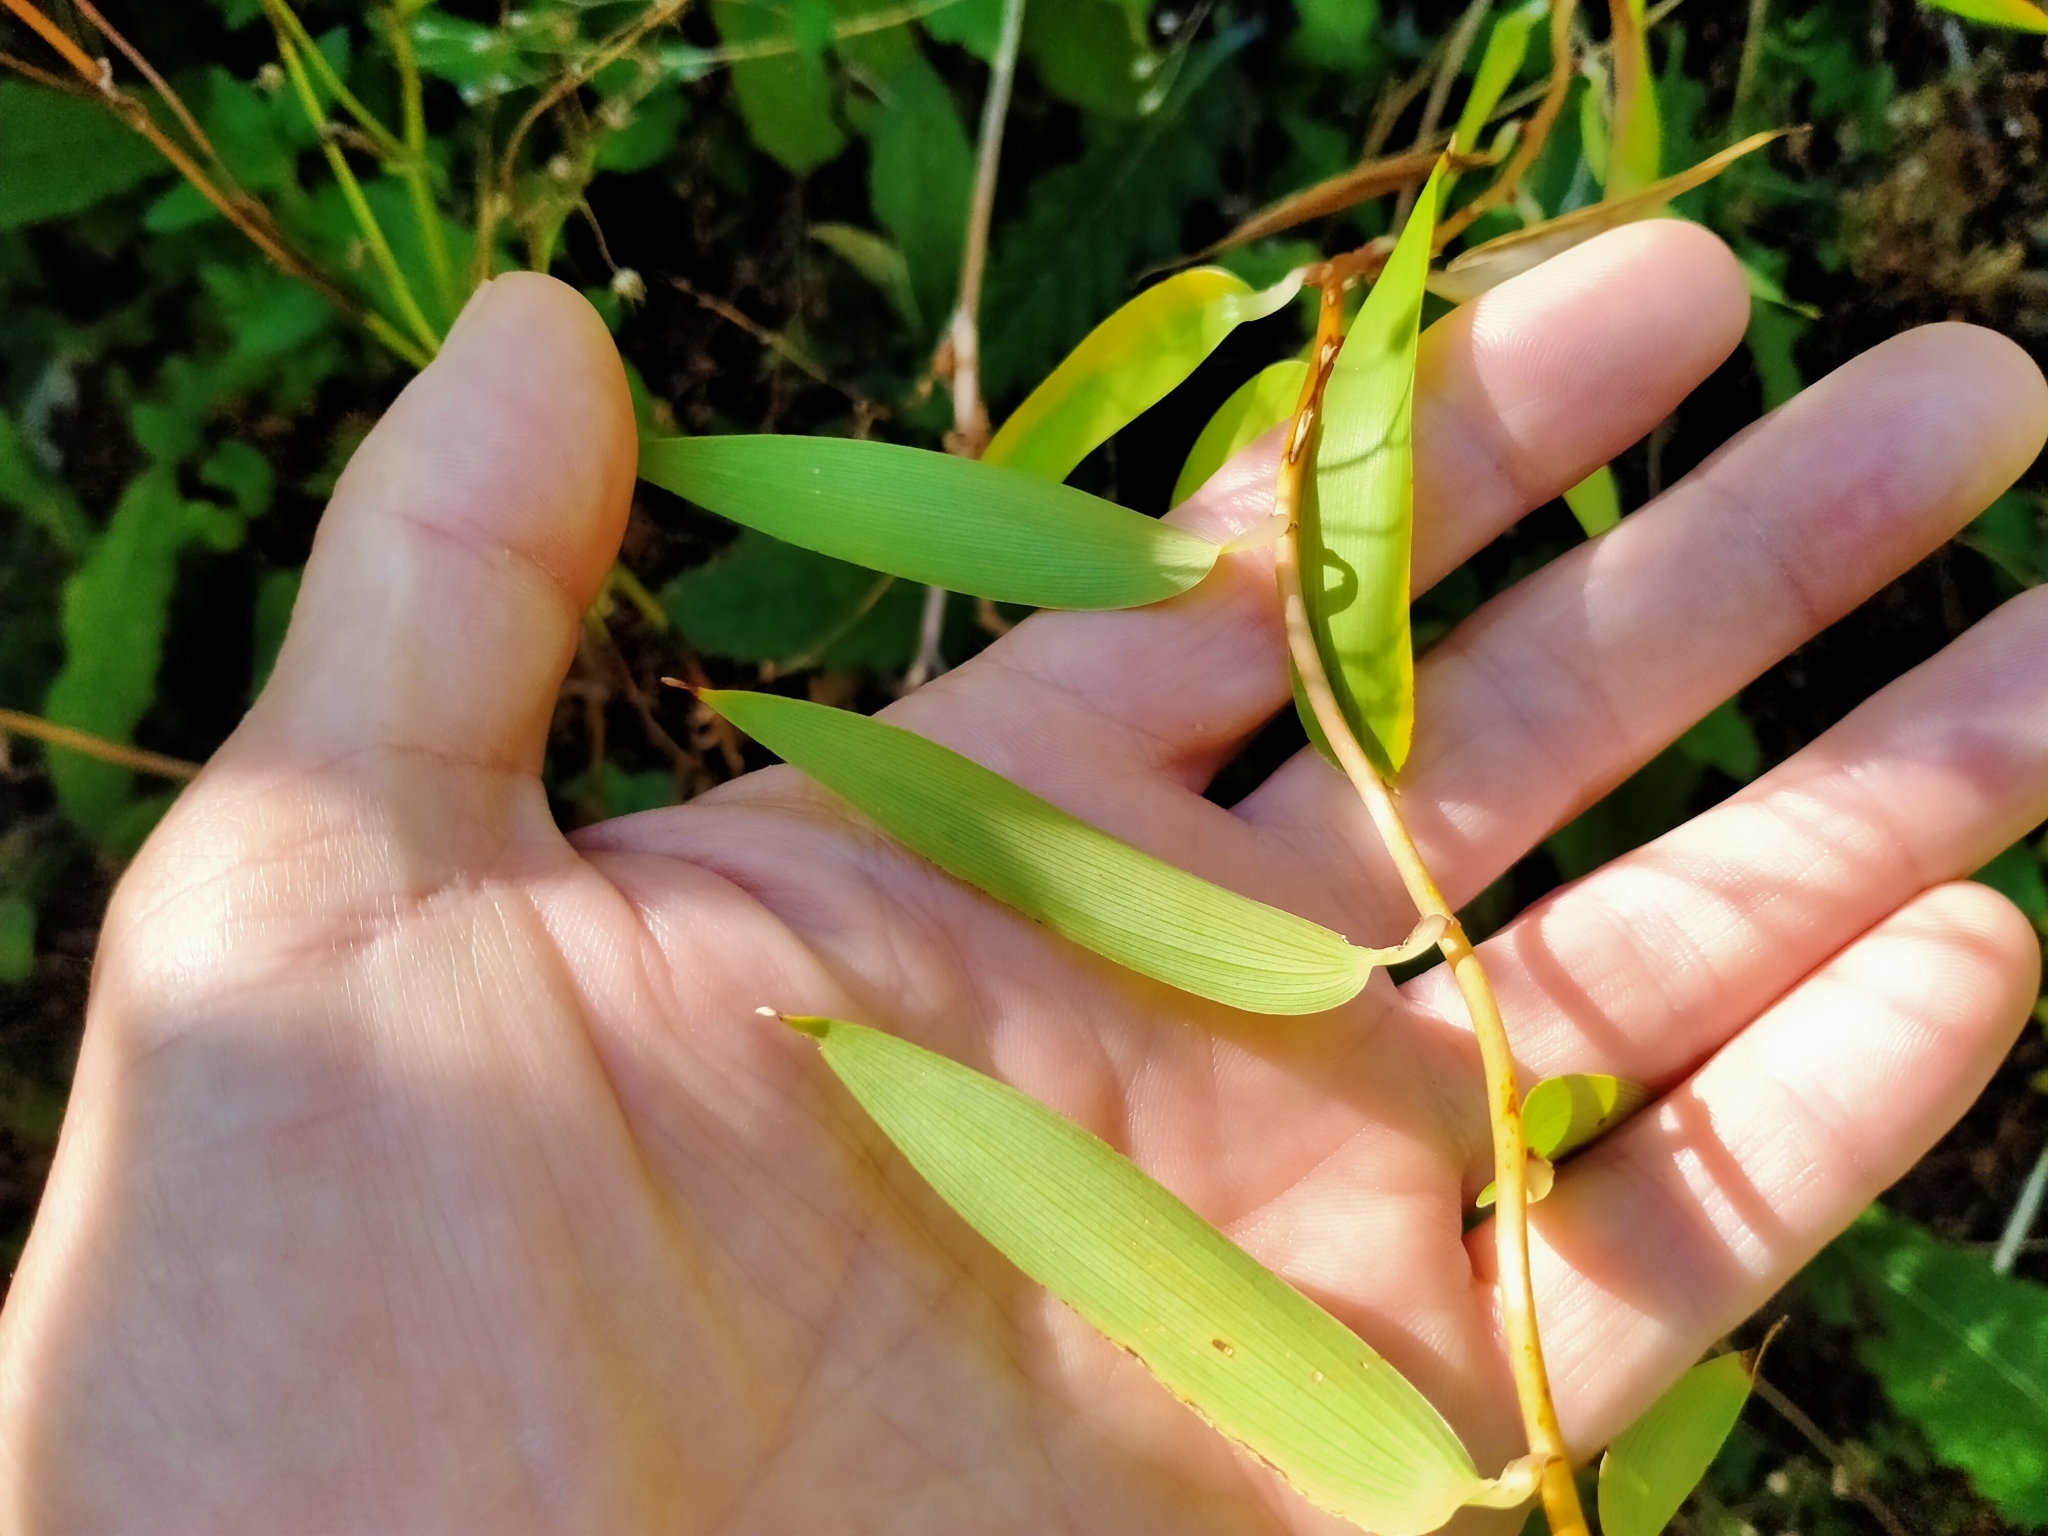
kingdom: Plantae
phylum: Tracheophyta
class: Liliopsida
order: Liliales
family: Alstroemeriaceae
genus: Bomarea
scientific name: Bomarea multiflora
